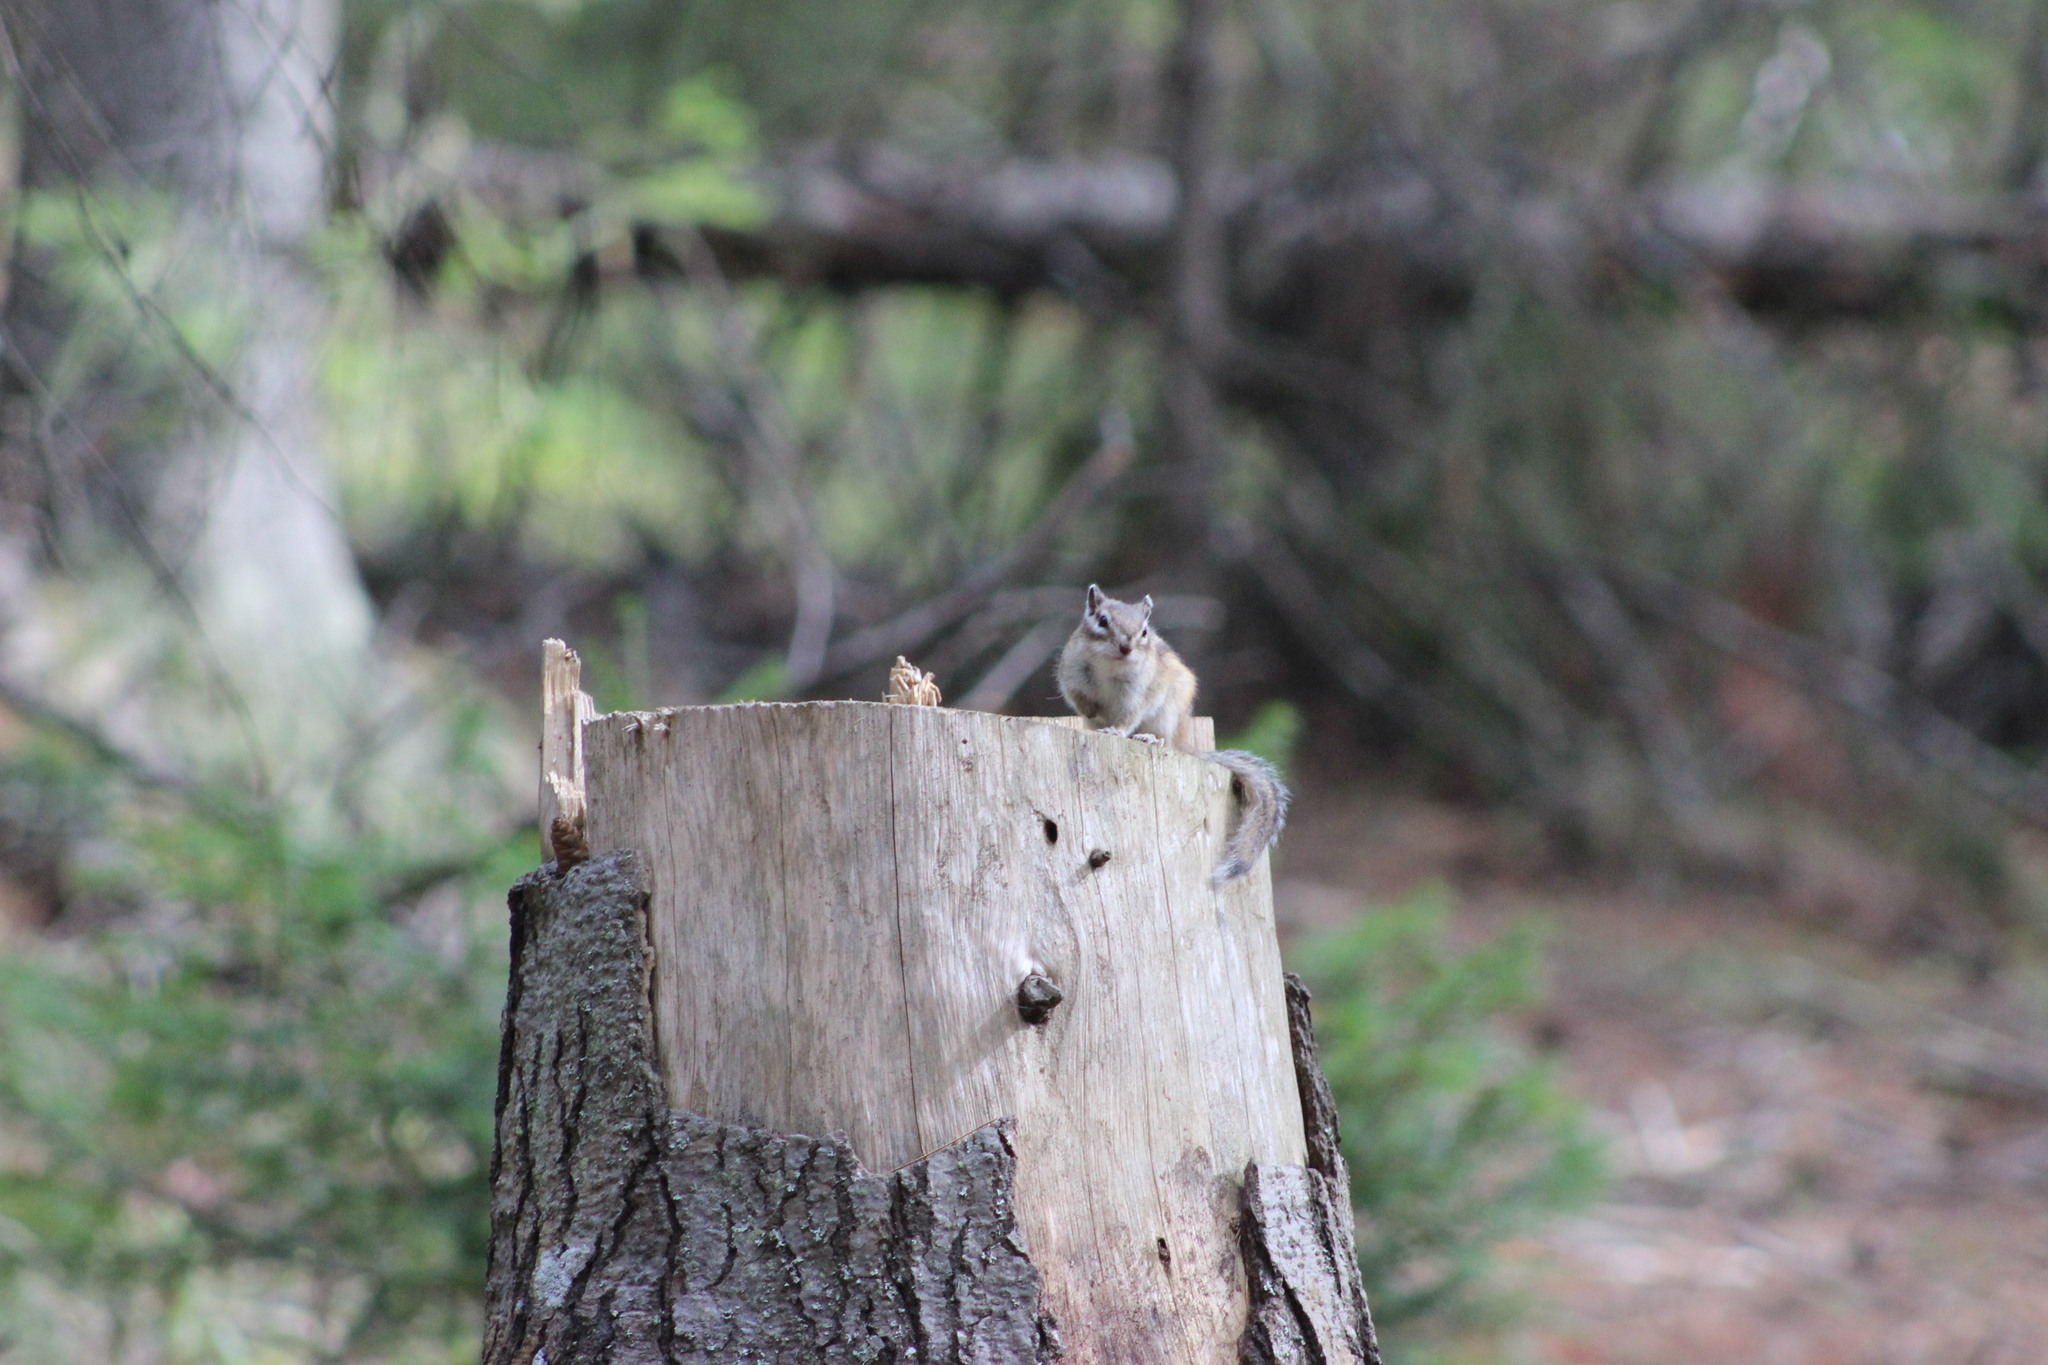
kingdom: Animalia
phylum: Chordata
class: Mammalia
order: Rodentia
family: Sciuridae
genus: Tamias
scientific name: Tamias sibiricus
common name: Siberian chipmunk
